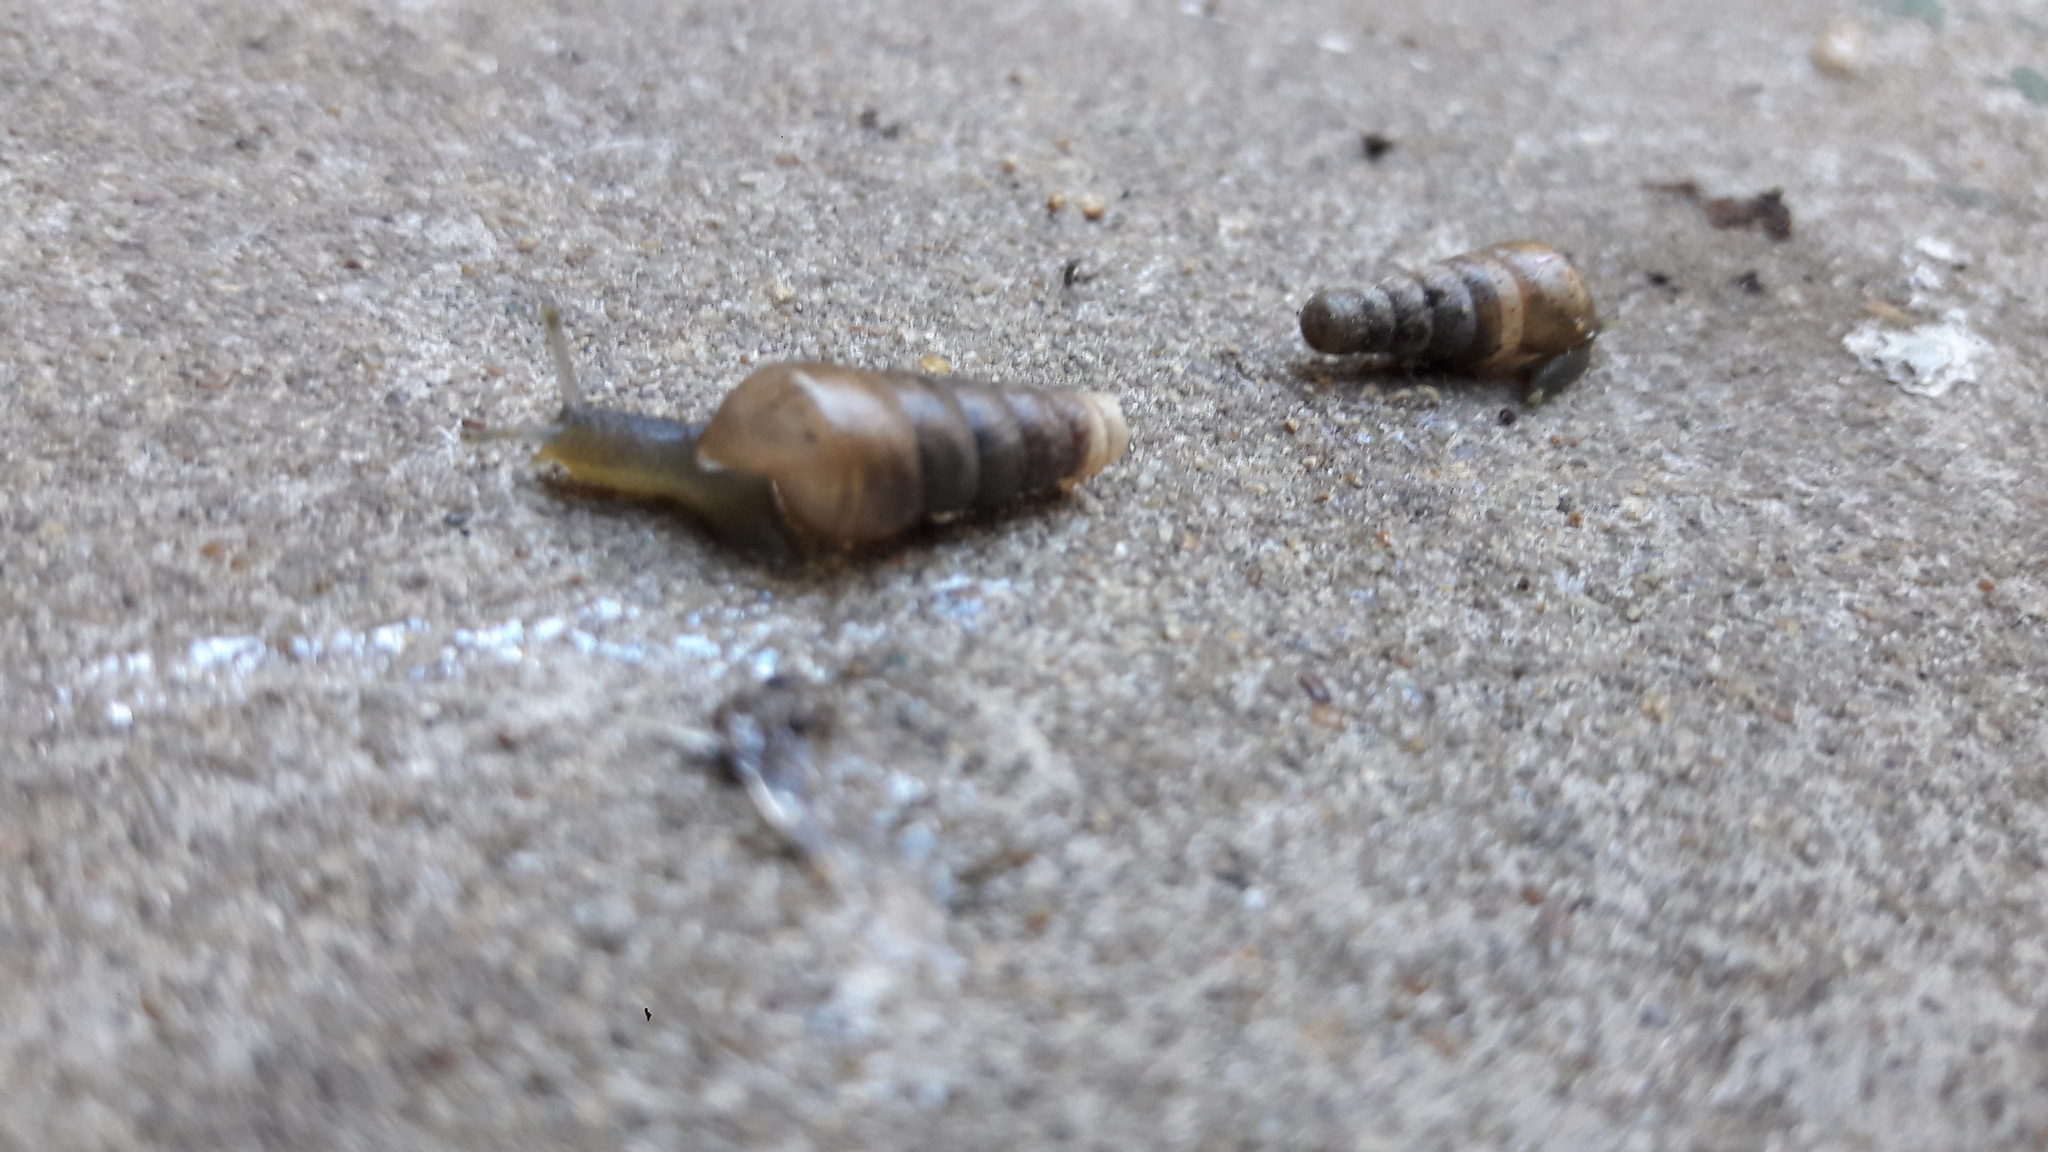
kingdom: Animalia
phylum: Mollusca
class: Gastropoda
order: Stylommatophora
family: Achatinidae
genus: Rumina
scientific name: Rumina decollata
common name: Decollate snail
